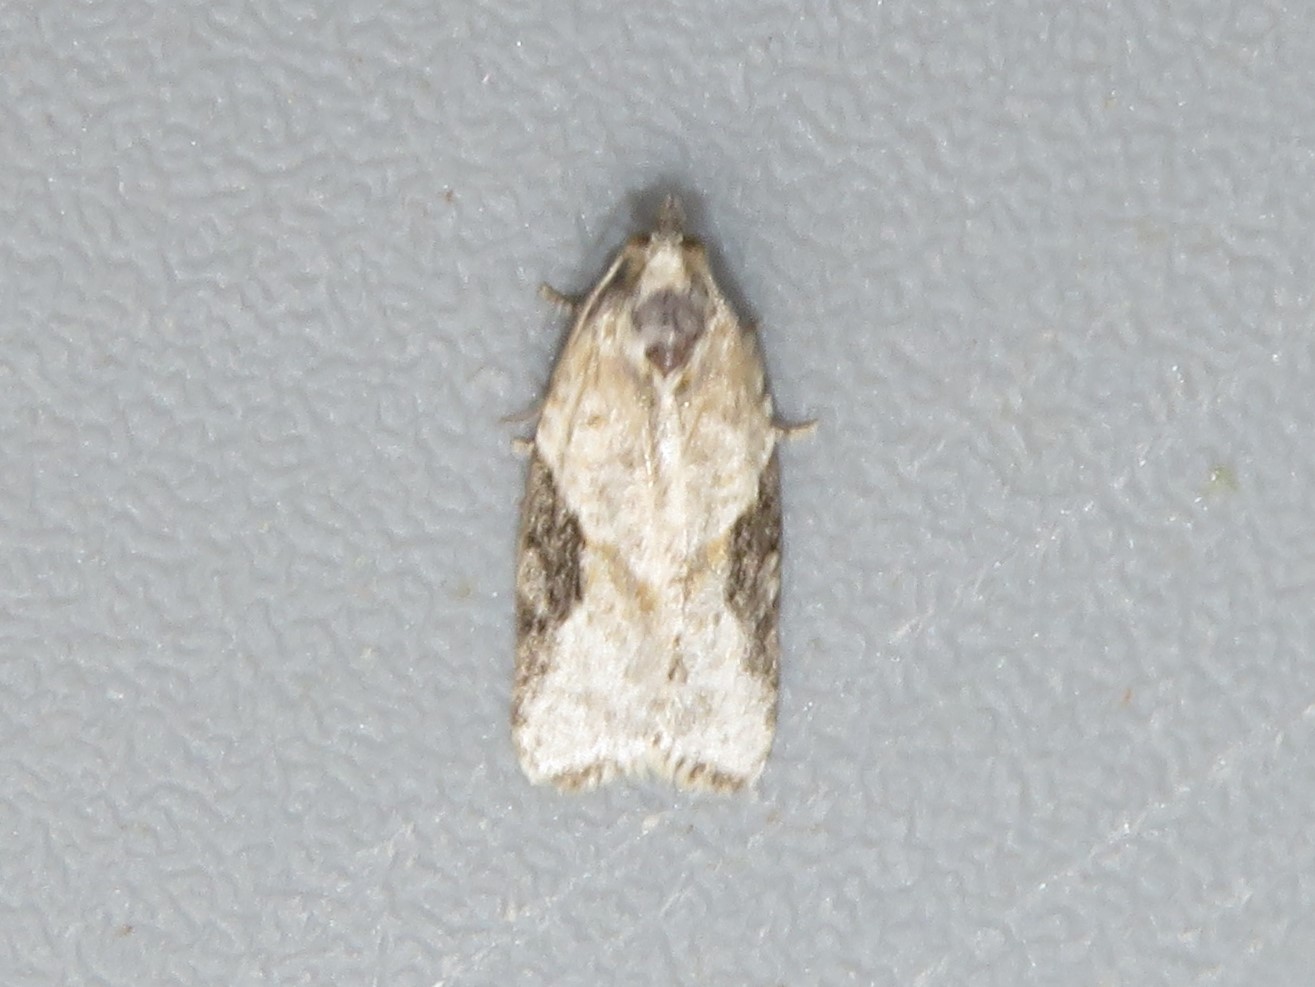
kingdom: Animalia
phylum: Arthropoda
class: Insecta
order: Lepidoptera
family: Tortricidae
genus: Argyrotaenia
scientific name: Argyrotaenia mariana
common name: Gray-banded leafroller moth
